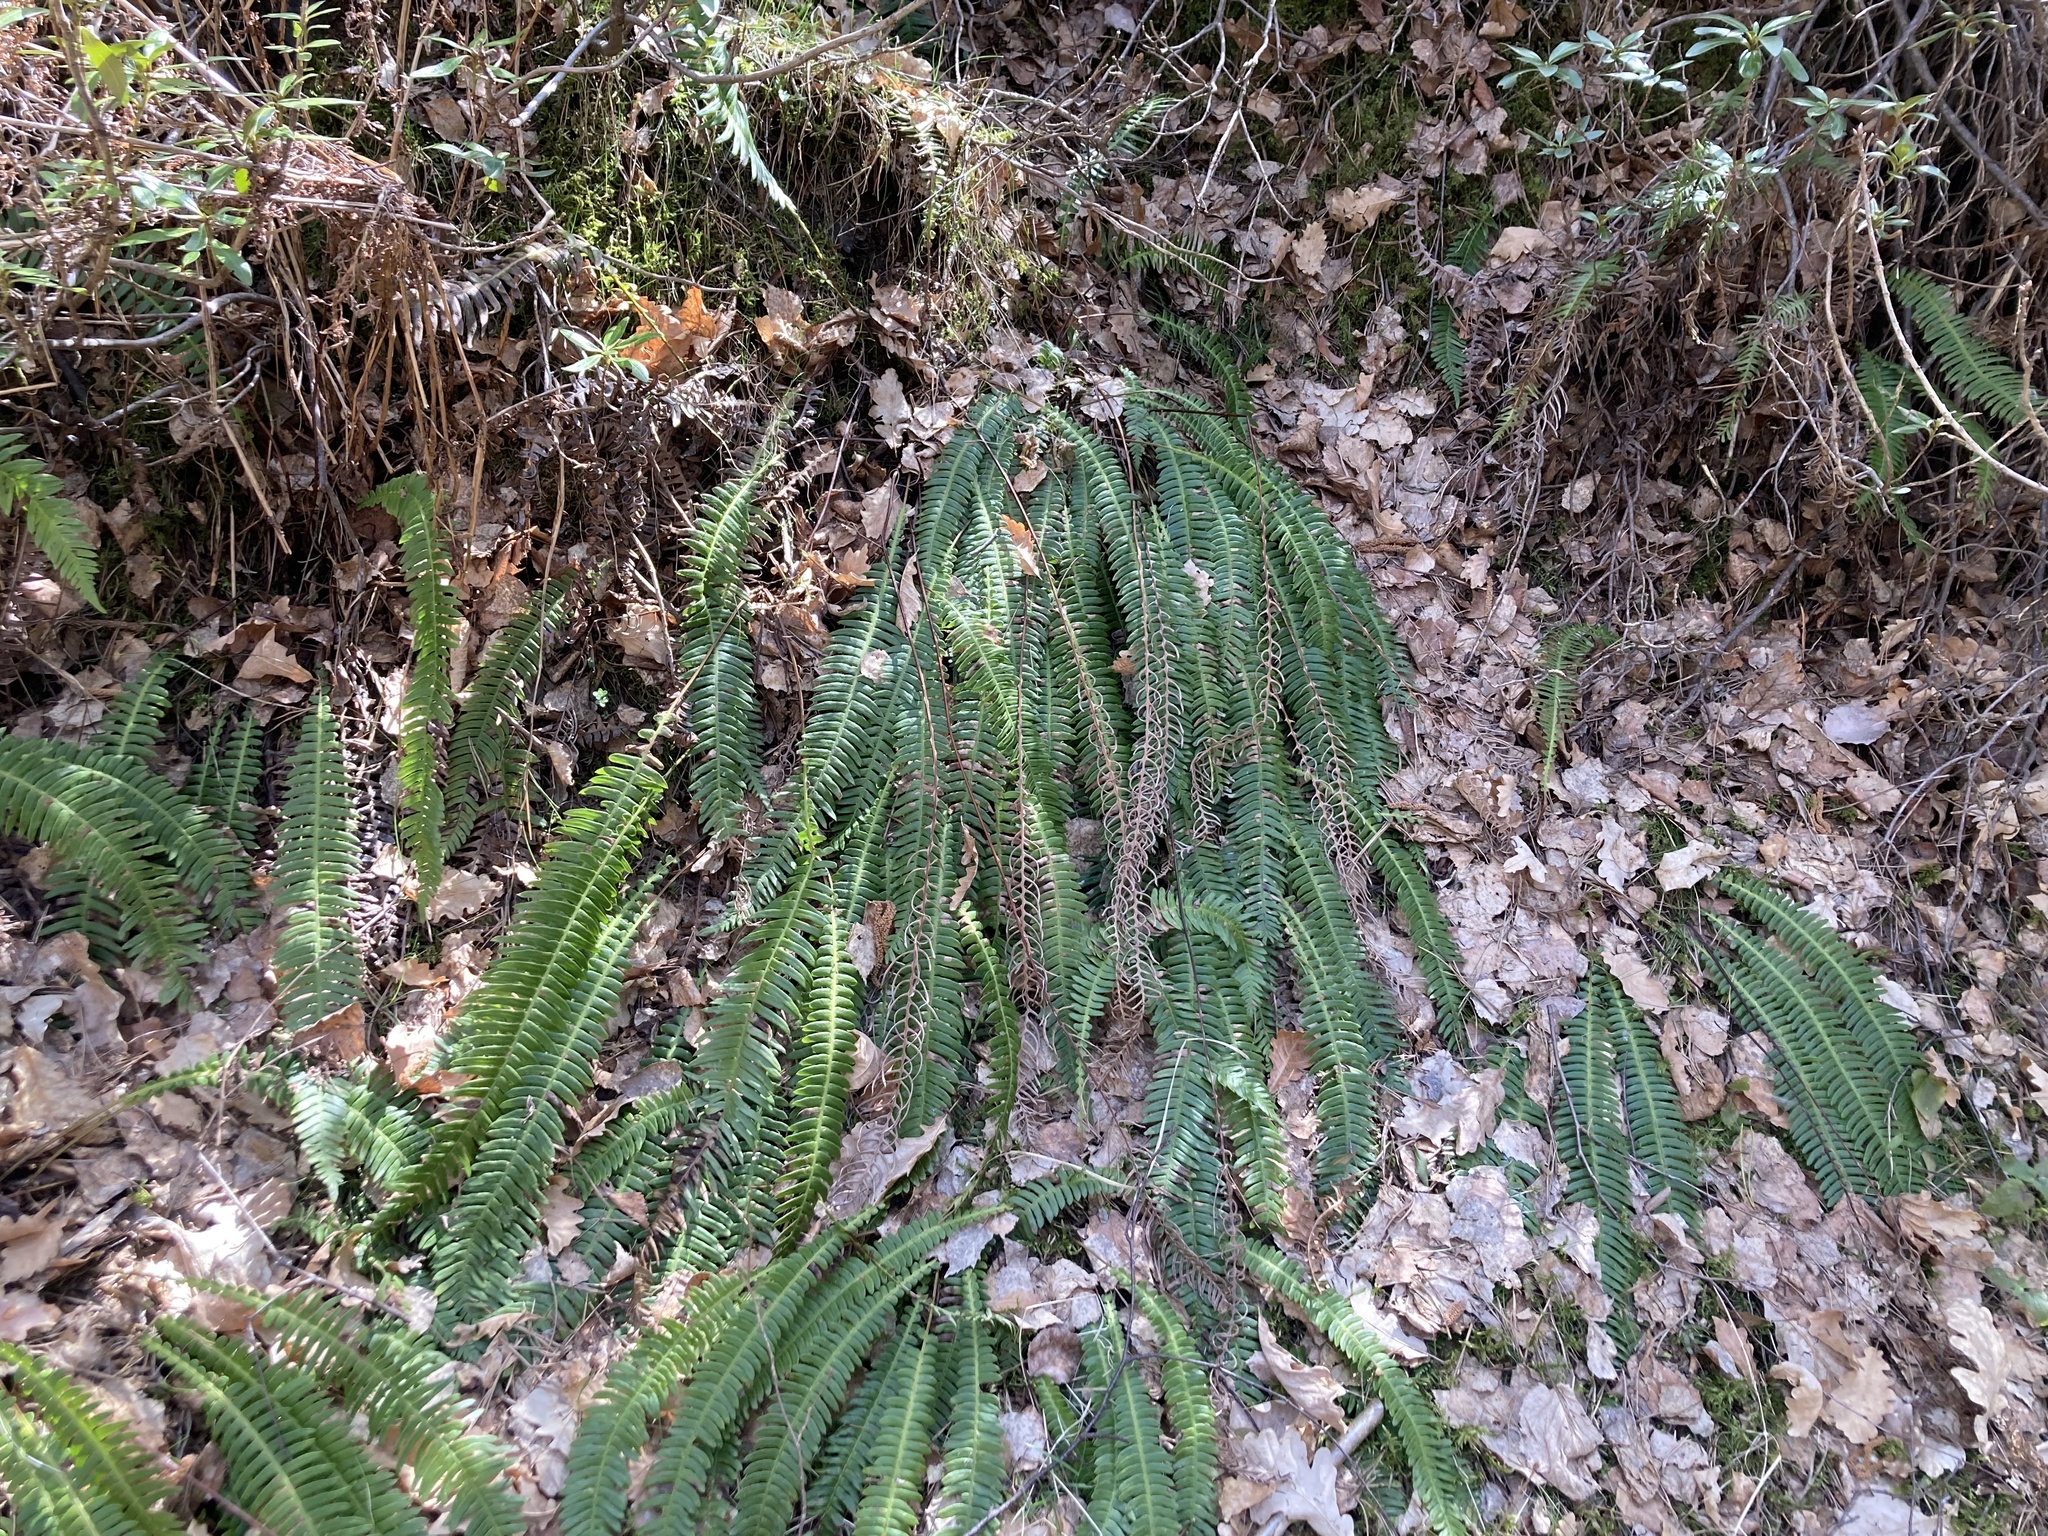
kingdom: Plantae
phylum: Tracheophyta
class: Polypodiopsida
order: Polypodiales
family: Blechnaceae
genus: Struthiopteris
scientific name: Struthiopteris spicant
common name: Deer fern
